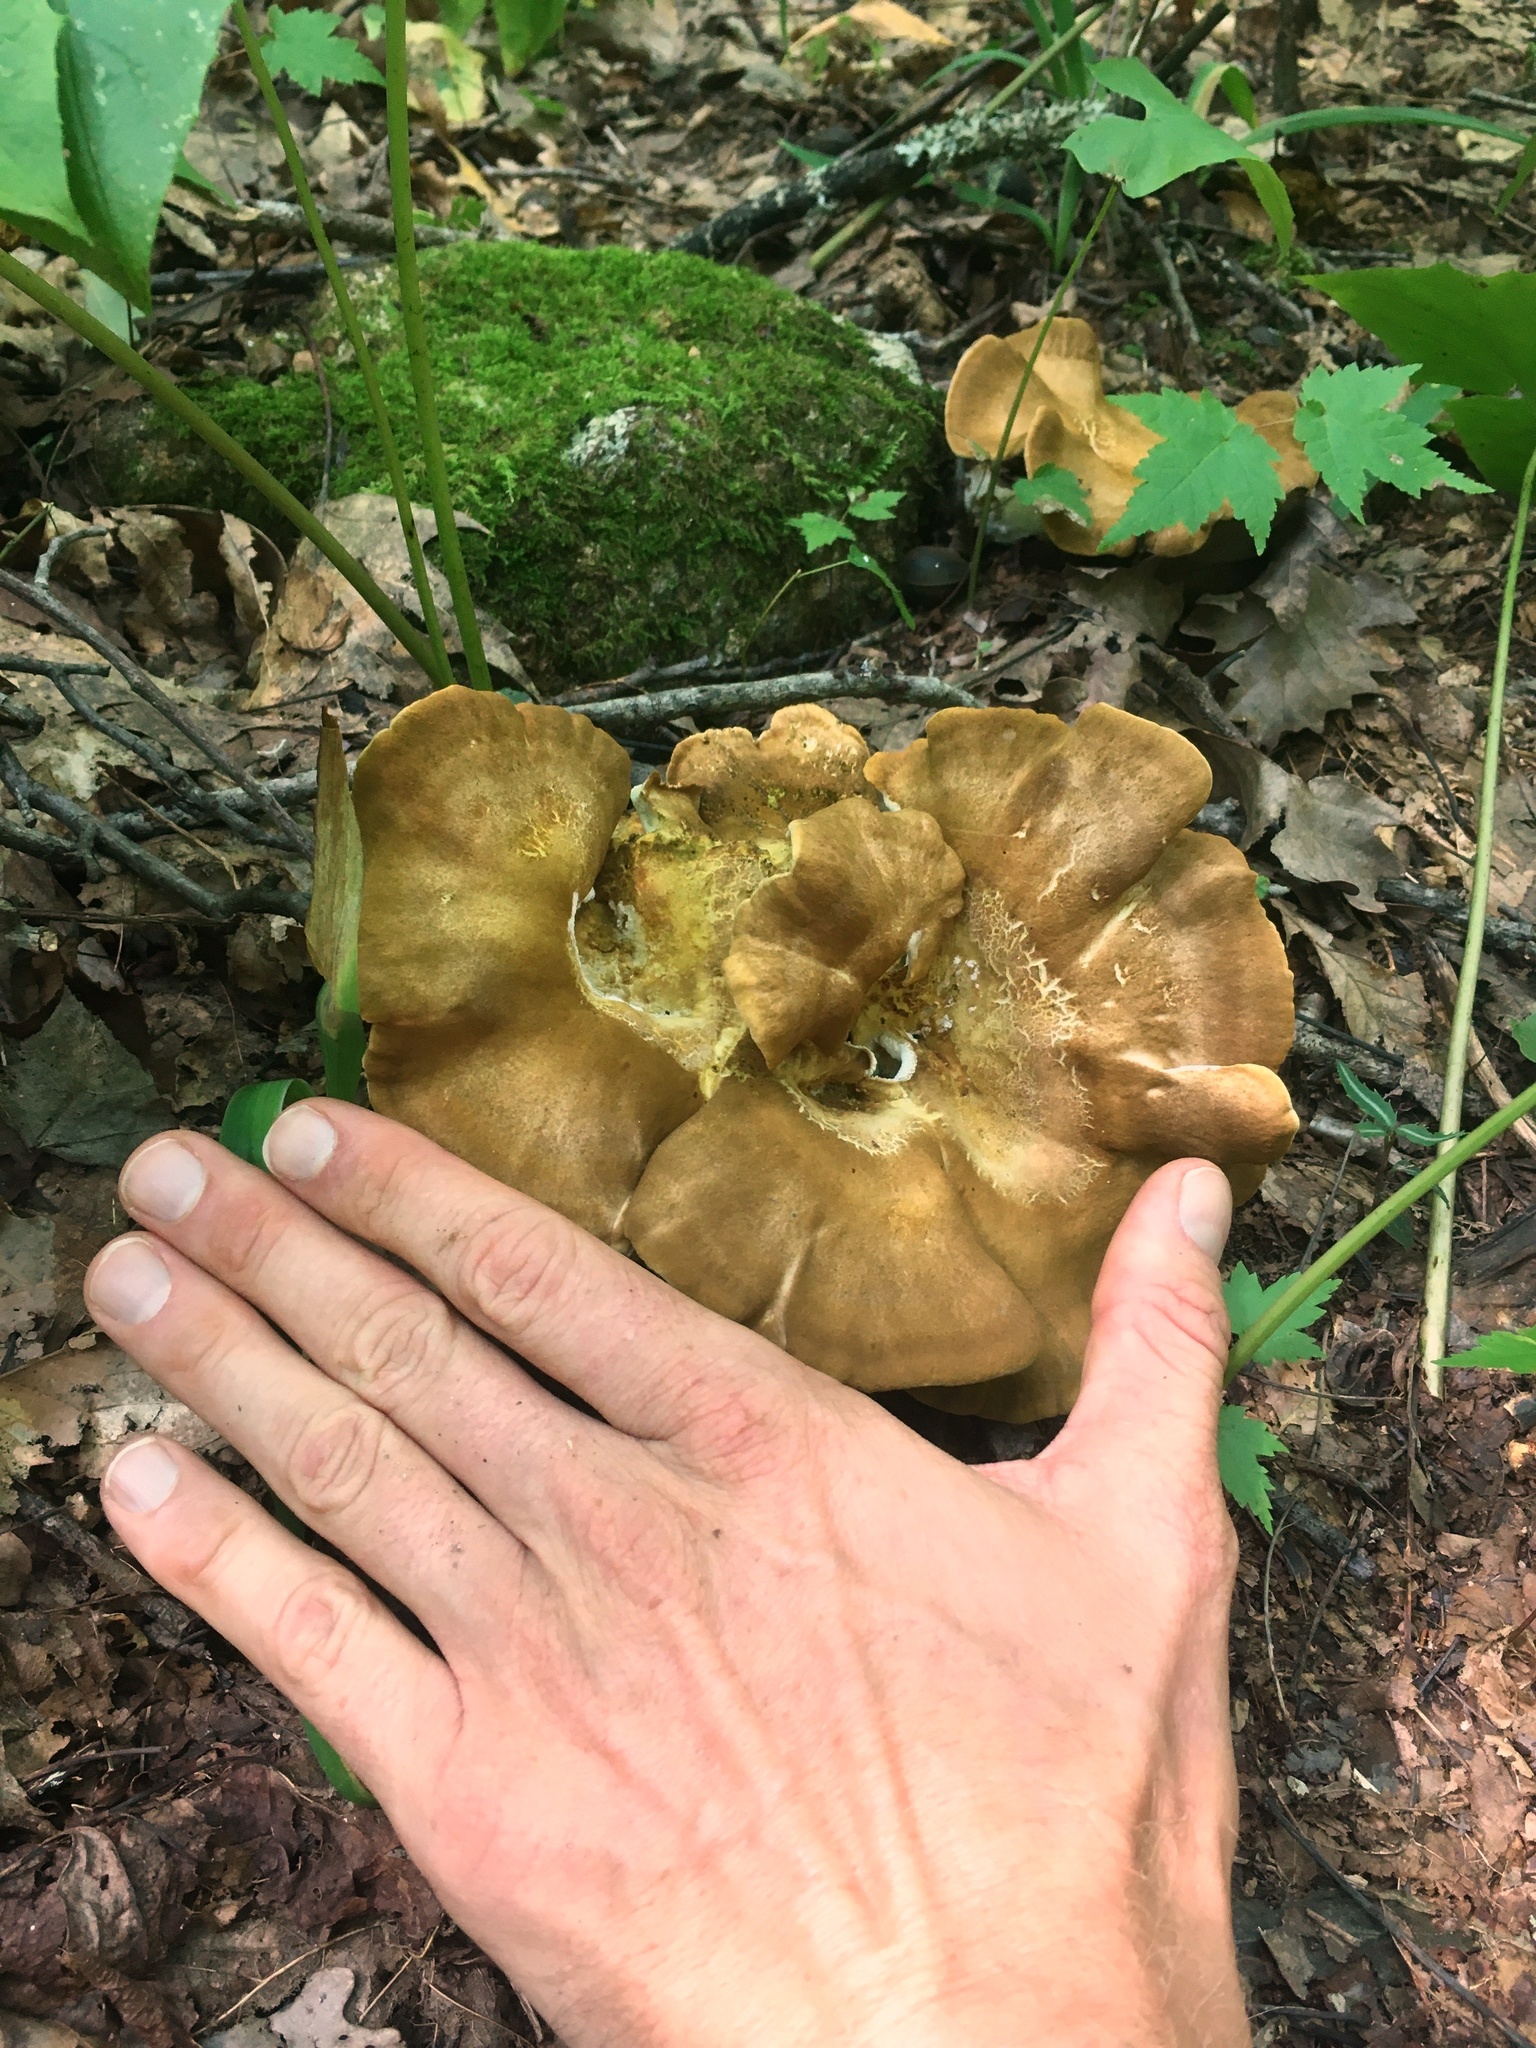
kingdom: Fungi
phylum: Basidiomycota
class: Agaricomycetes
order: Russulales
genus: Laeticutis
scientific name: Laeticutis cristata
